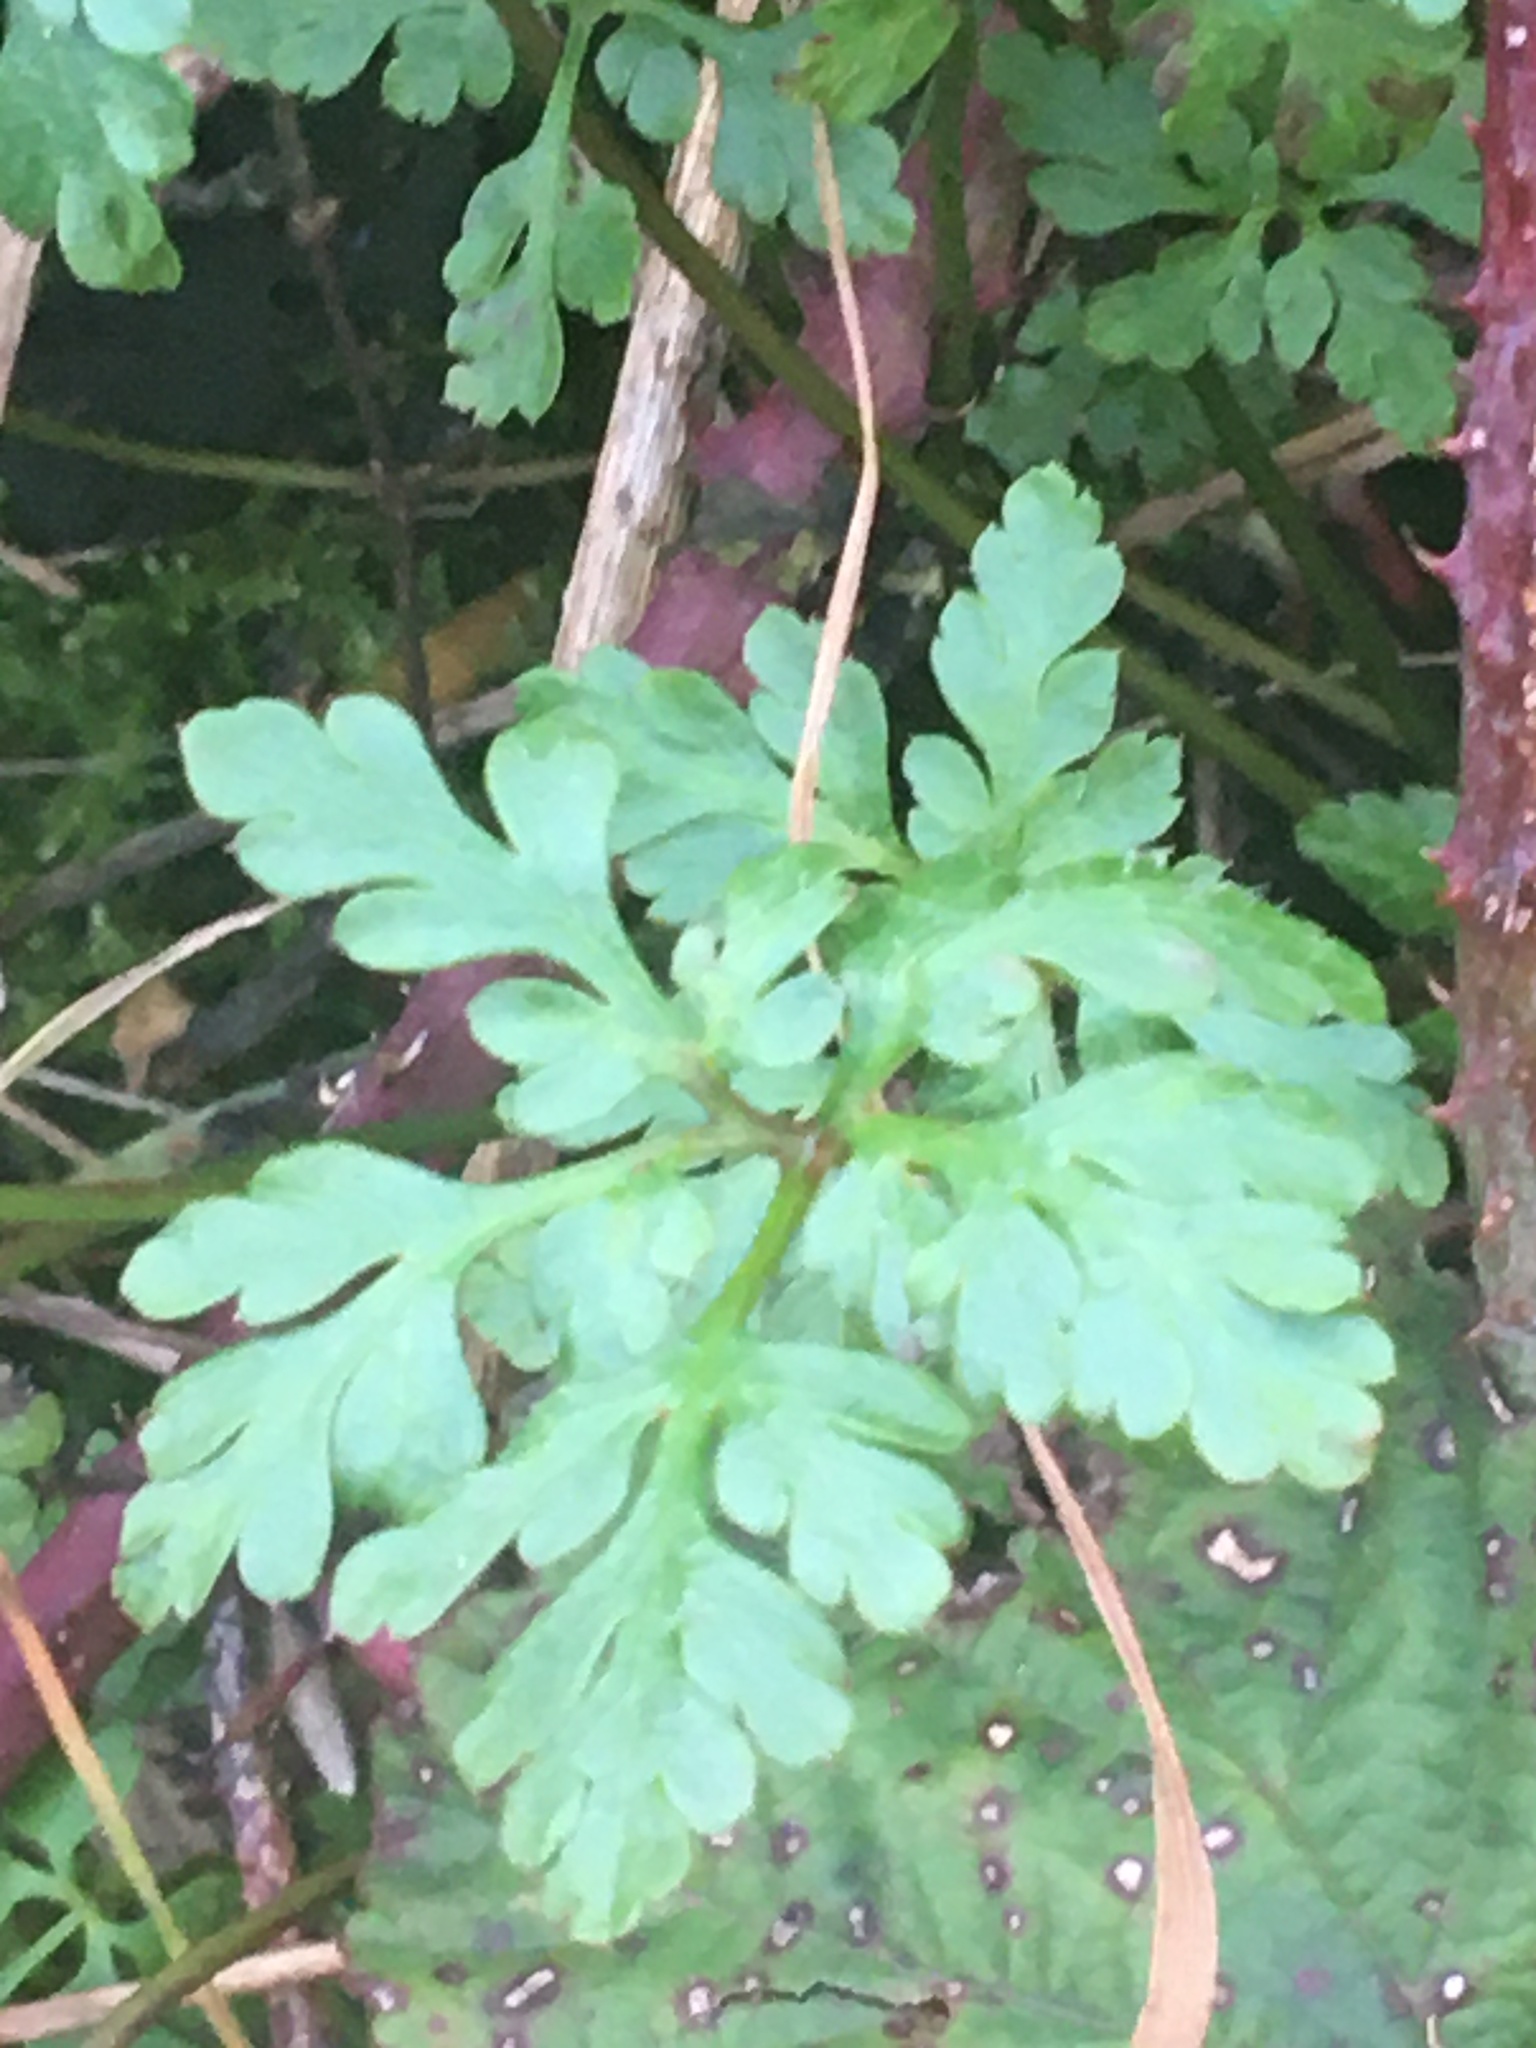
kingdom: Plantae
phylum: Tracheophyta
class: Magnoliopsida
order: Geraniales
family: Geraniaceae
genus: Geranium
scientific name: Geranium robertianum
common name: Herb-robert
